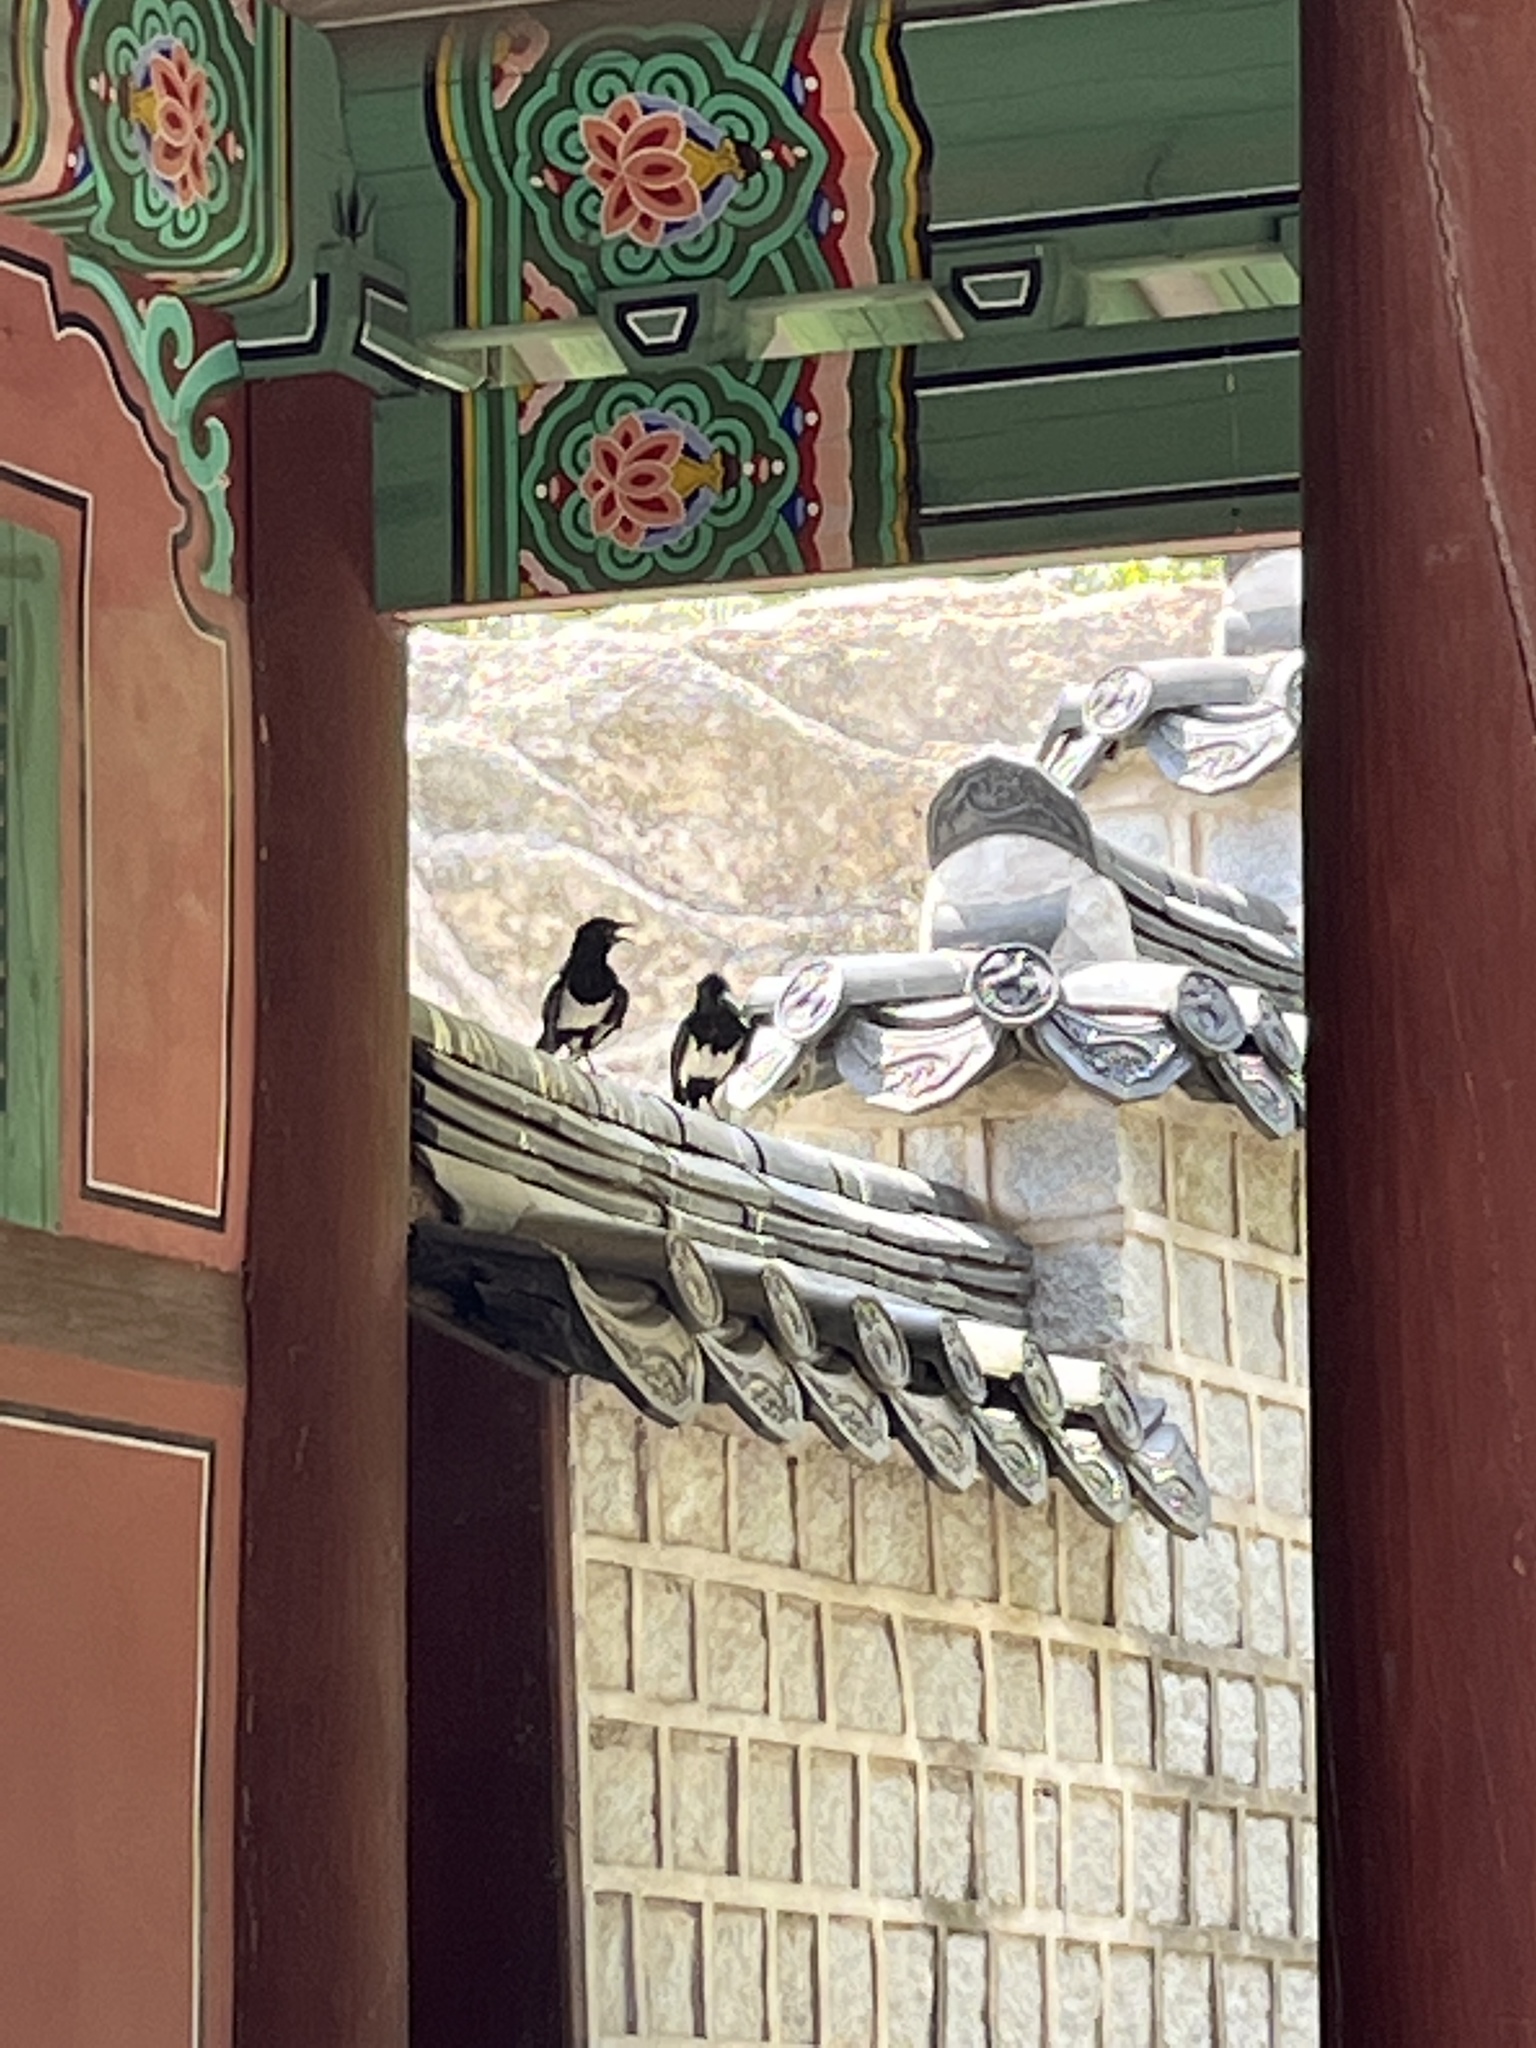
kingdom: Animalia
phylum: Chordata
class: Aves
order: Passeriformes
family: Corvidae
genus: Pica
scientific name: Pica serica
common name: Oriental magpie
